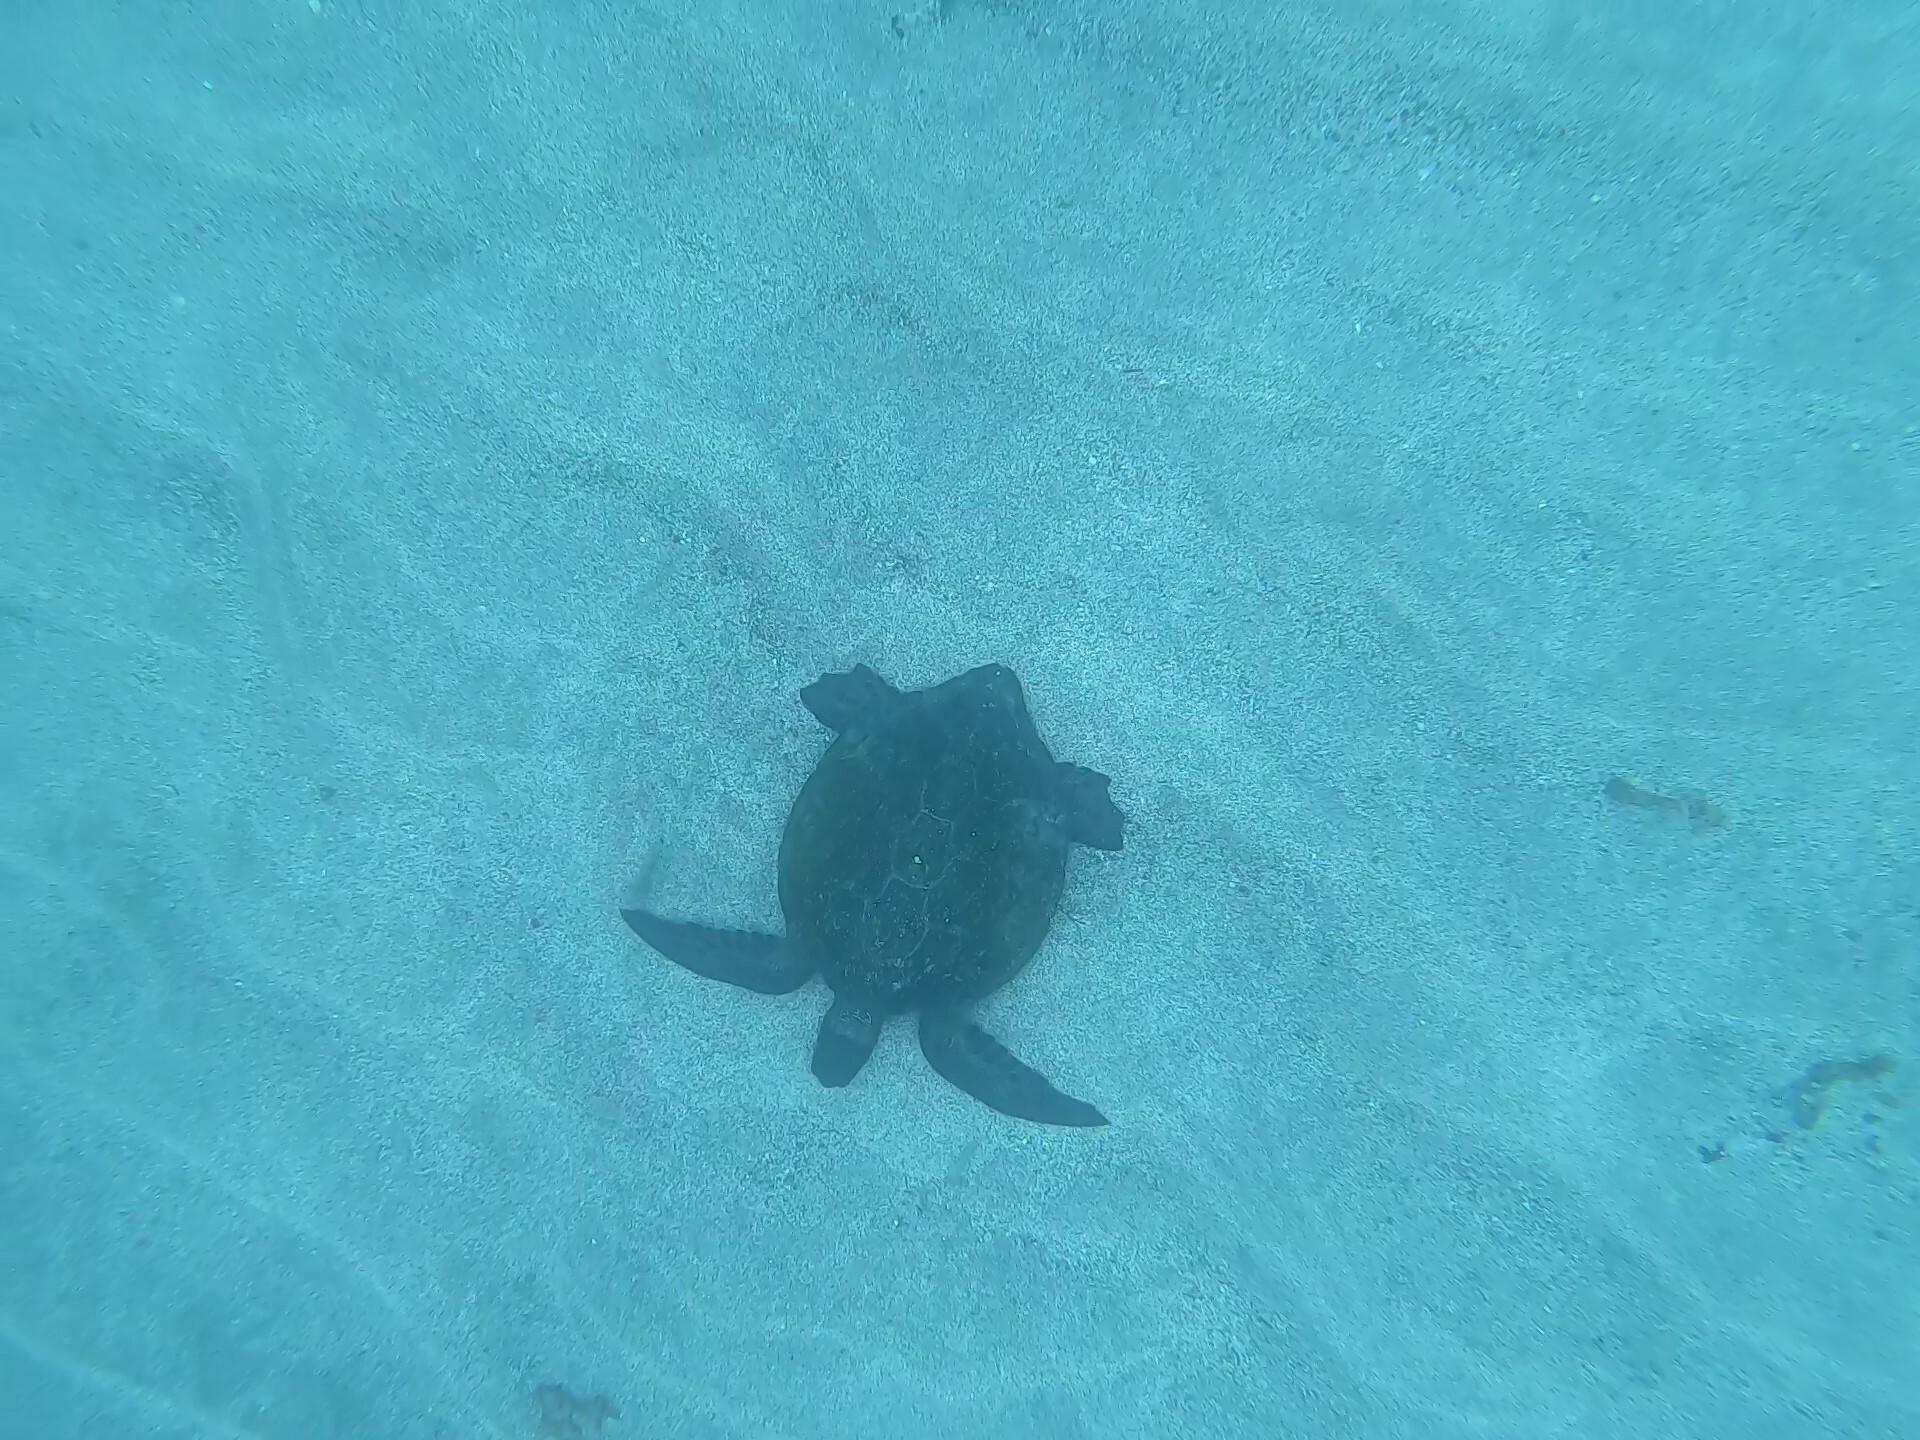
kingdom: Animalia
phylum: Chordata
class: Testudines
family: Cheloniidae
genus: Chelonia
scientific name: Chelonia mydas
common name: Green turtle
